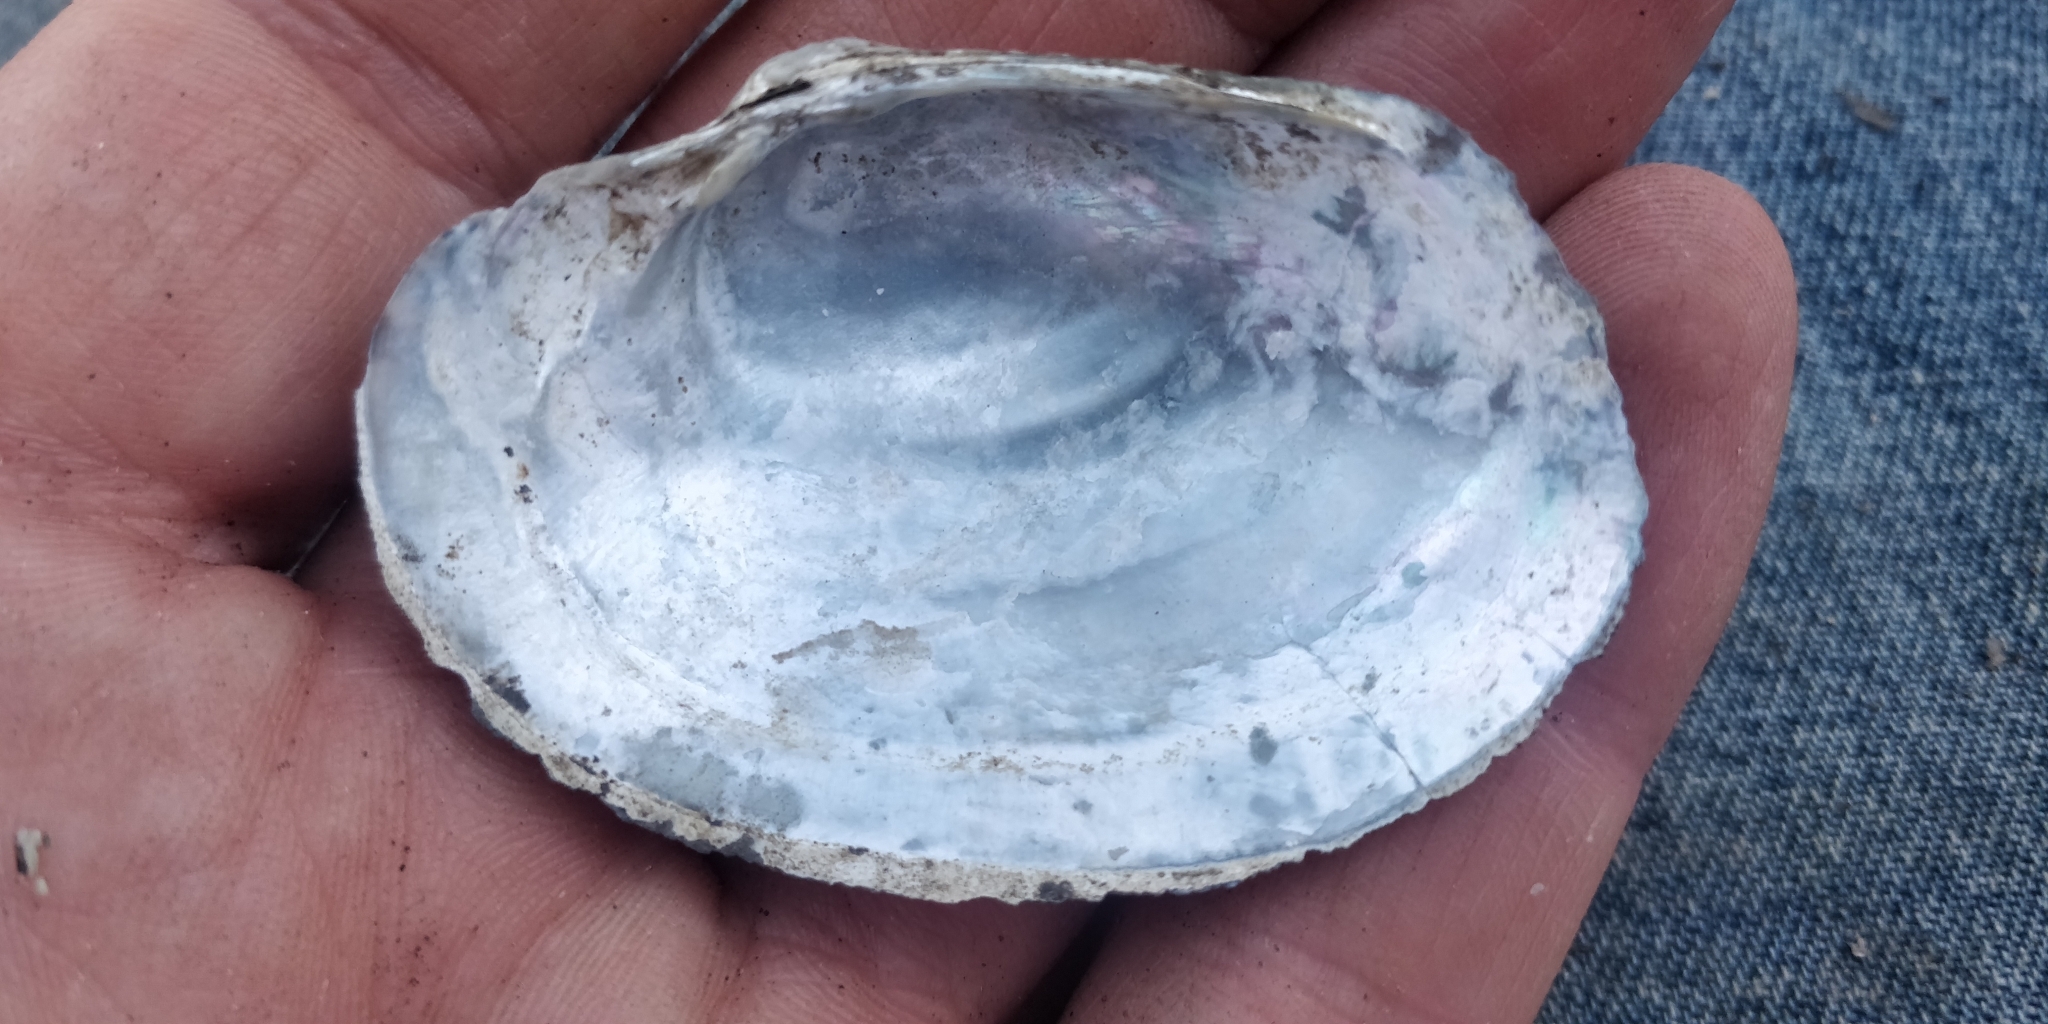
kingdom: Animalia
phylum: Mollusca
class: Bivalvia
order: Unionida
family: Unionidae
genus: Lampsilis
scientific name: Lampsilis cardium
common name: Plain pocketbook
